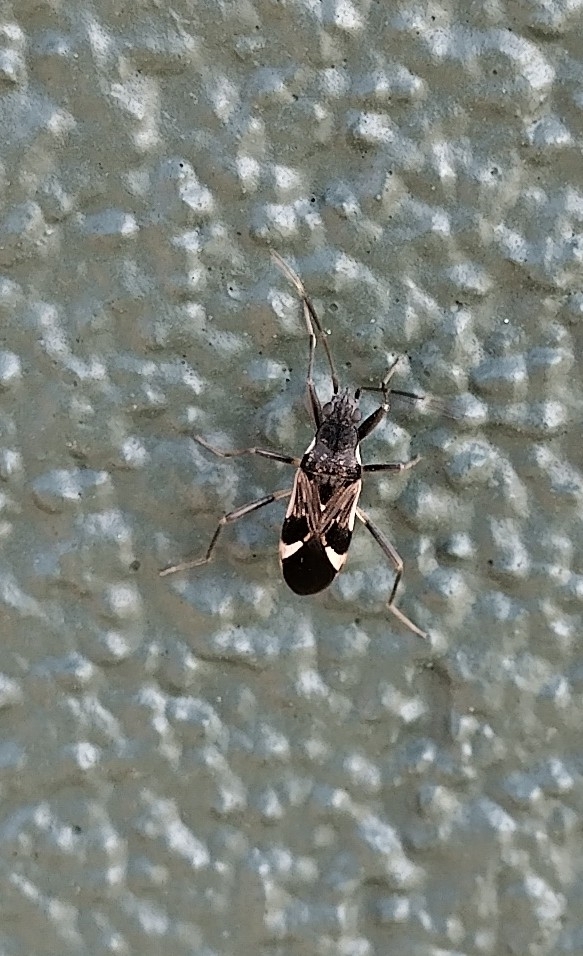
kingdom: Animalia
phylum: Arthropoda
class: Insecta
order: Hemiptera
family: Rhyparochromidae
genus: Dieuches
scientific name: Dieuches notatus
